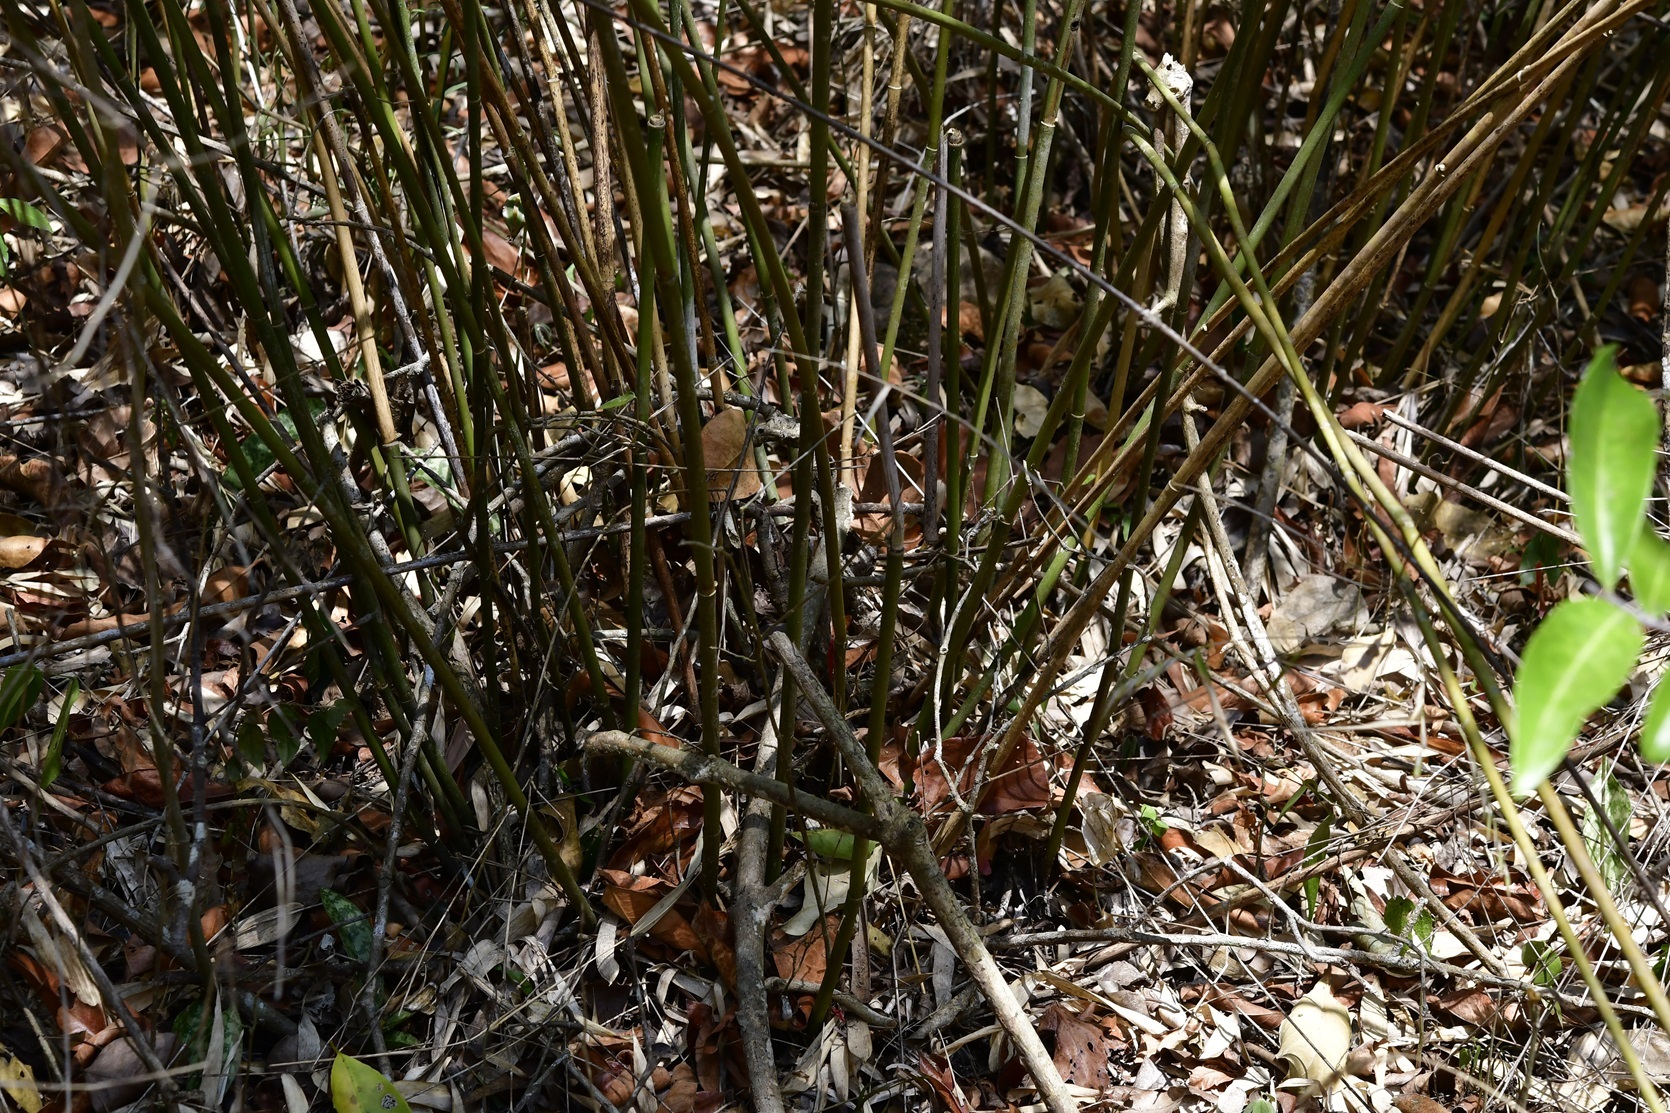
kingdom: Plantae
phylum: Tracheophyta
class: Liliopsida
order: Poales
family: Poaceae
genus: Rhipidocladum
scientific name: Rhipidocladum pittieri
